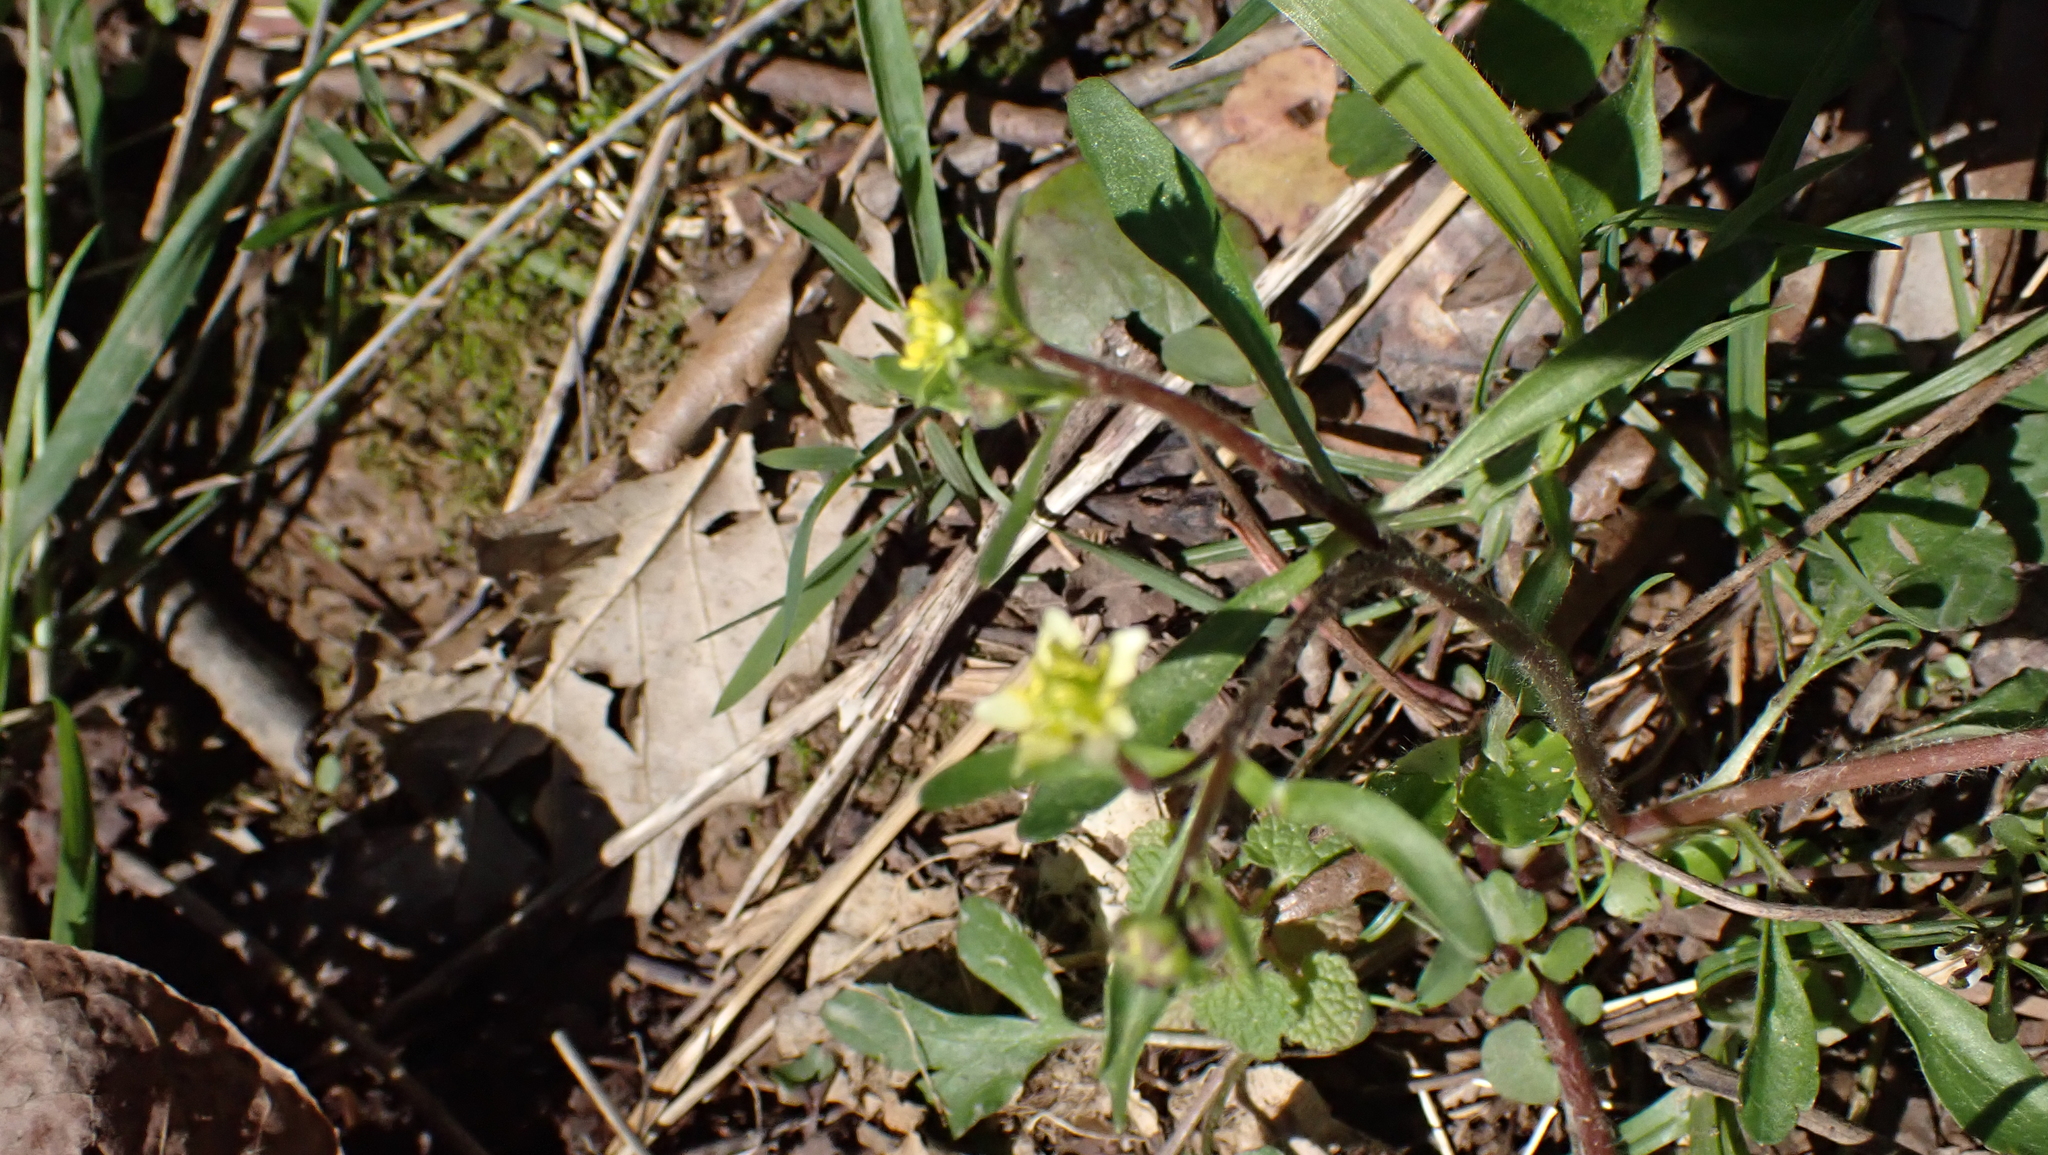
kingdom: Plantae
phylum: Tracheophyta
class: Magnoliopsida
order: Ranunculales
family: Ranunculaceae
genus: Ranunculus
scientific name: Ranunculus micranthus
